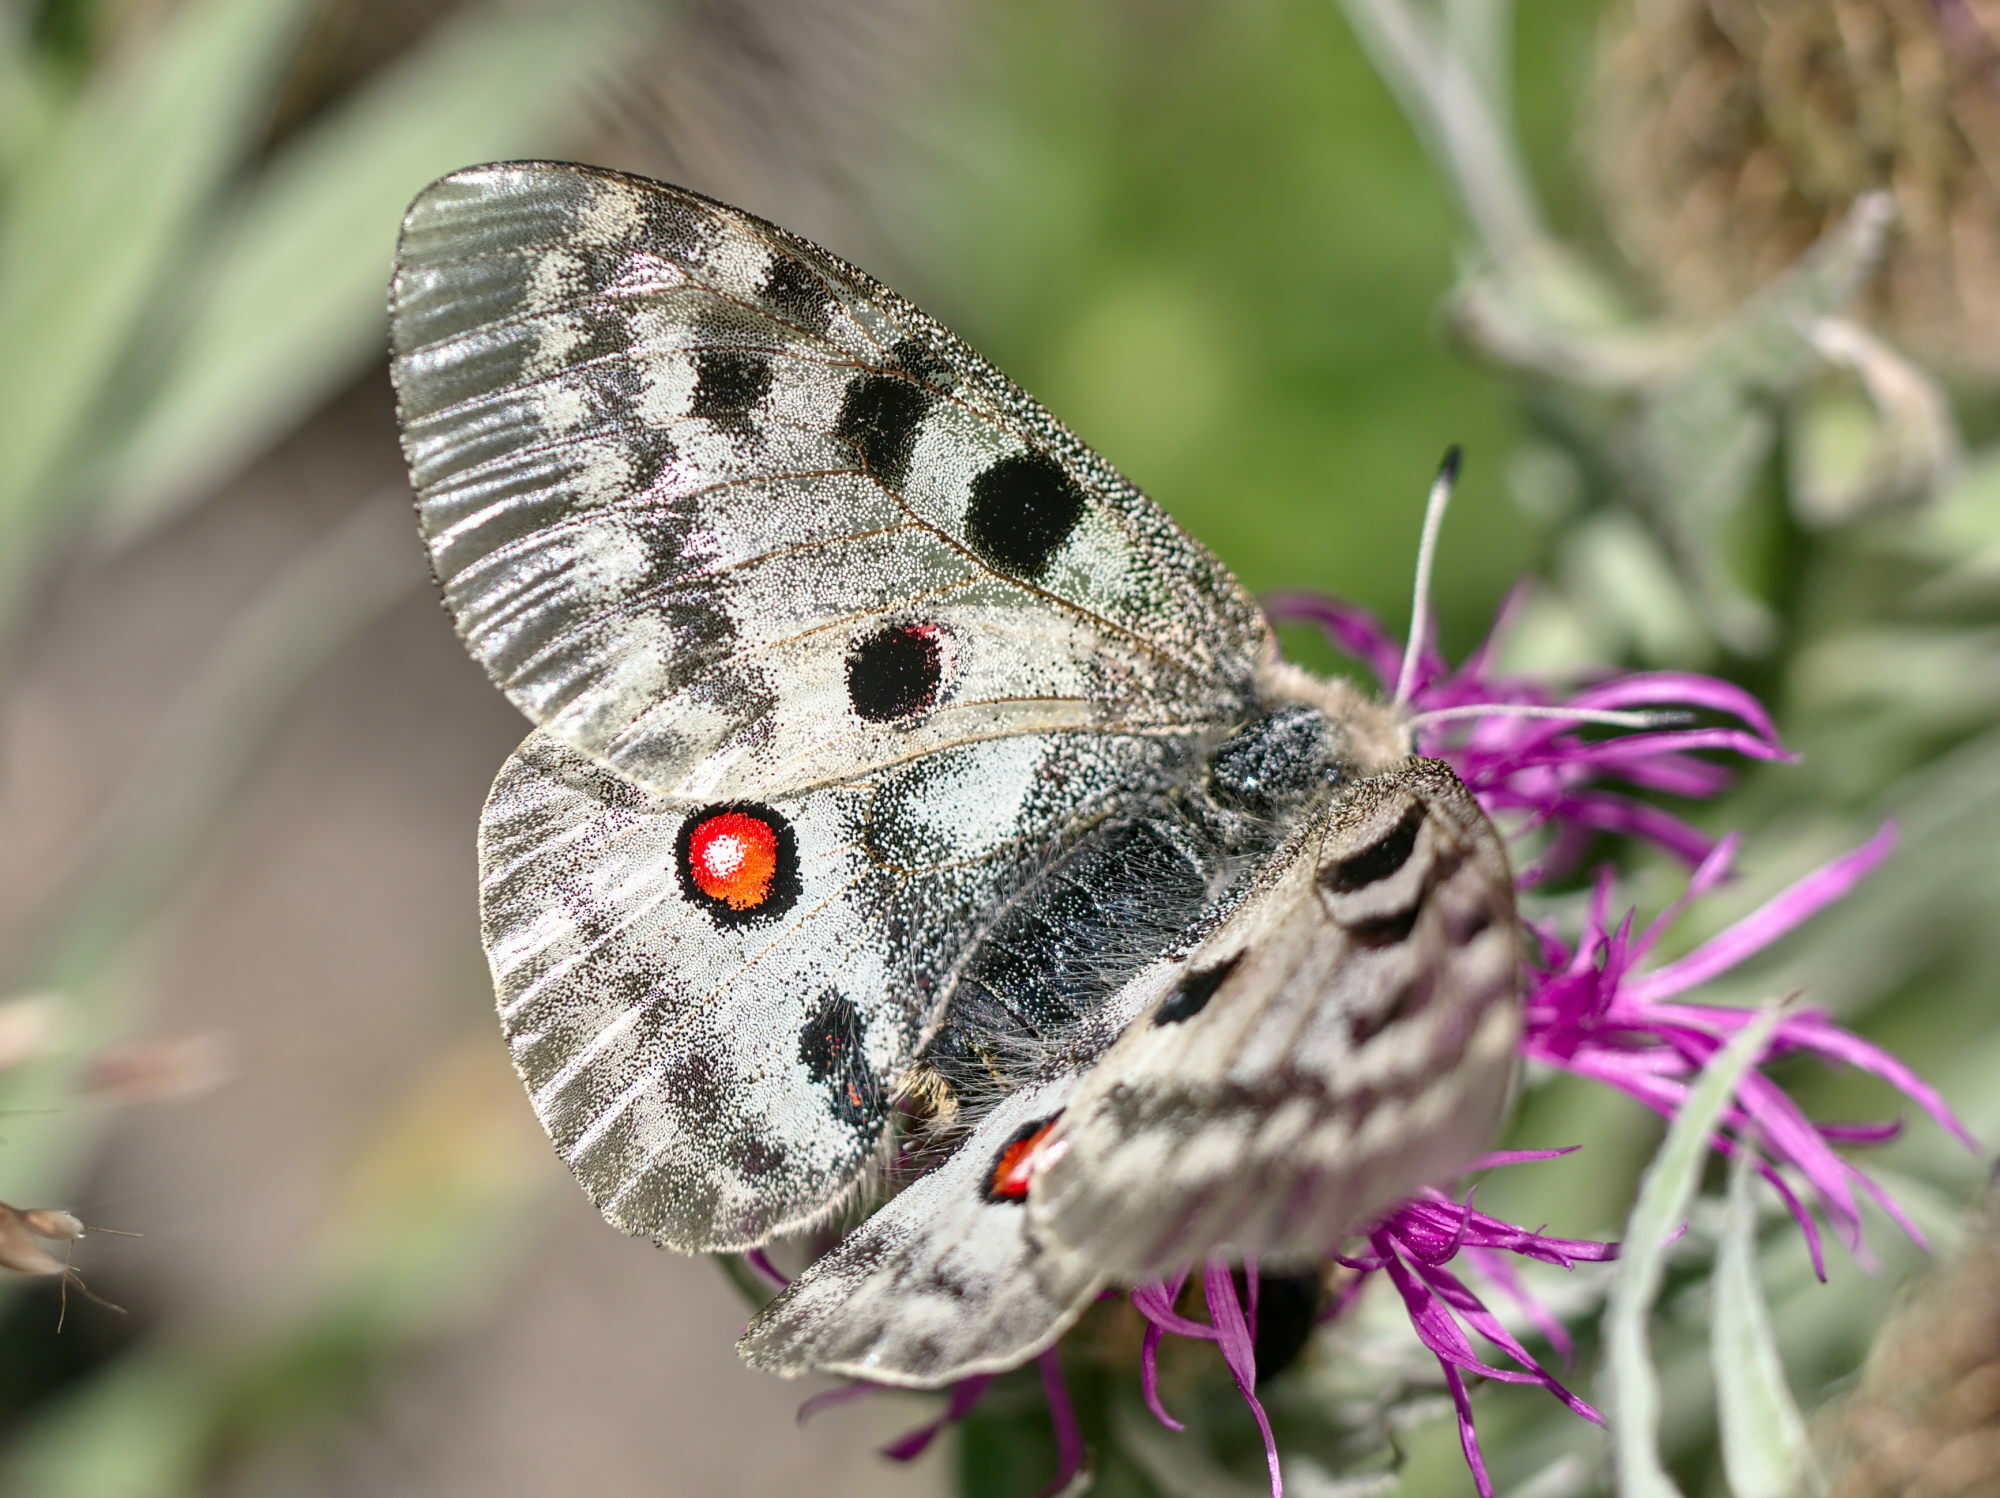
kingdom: Animalia
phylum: Arthropoda
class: Insecta
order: Lepidoptera
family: Papilionidae
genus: Parnassius
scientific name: Parnassius apollo
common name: Apollo
